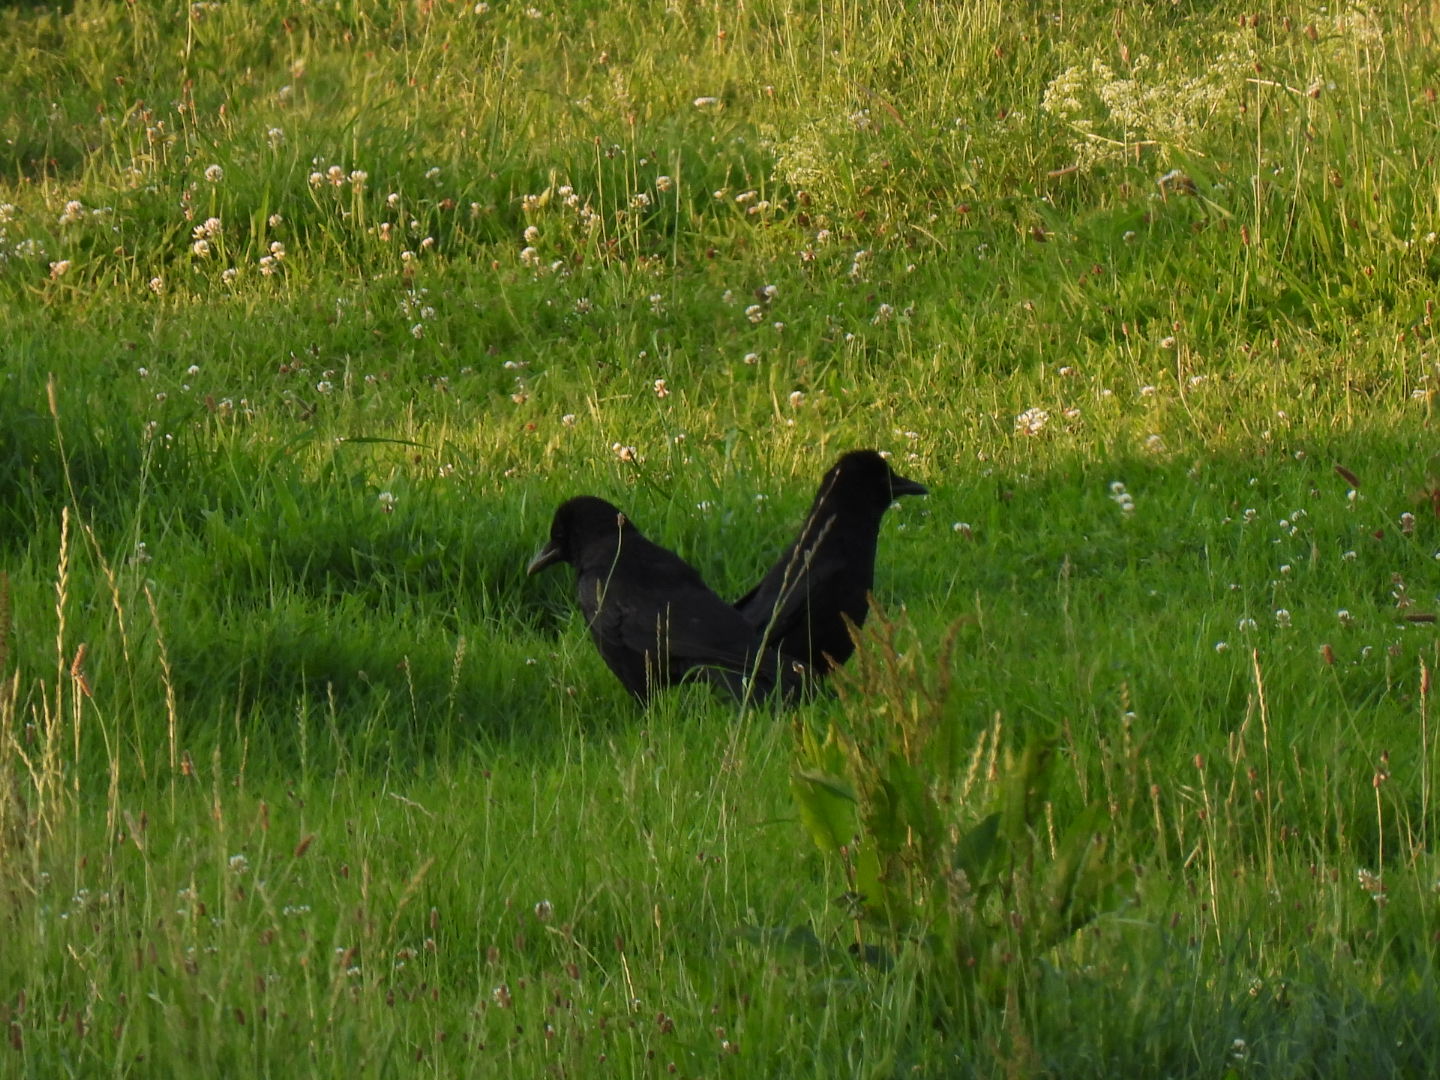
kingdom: Animalia
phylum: Chordata
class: Aves
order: Passeriformes
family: Corvidae
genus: Corvus
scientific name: Corvus corone
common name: Carrion crow
